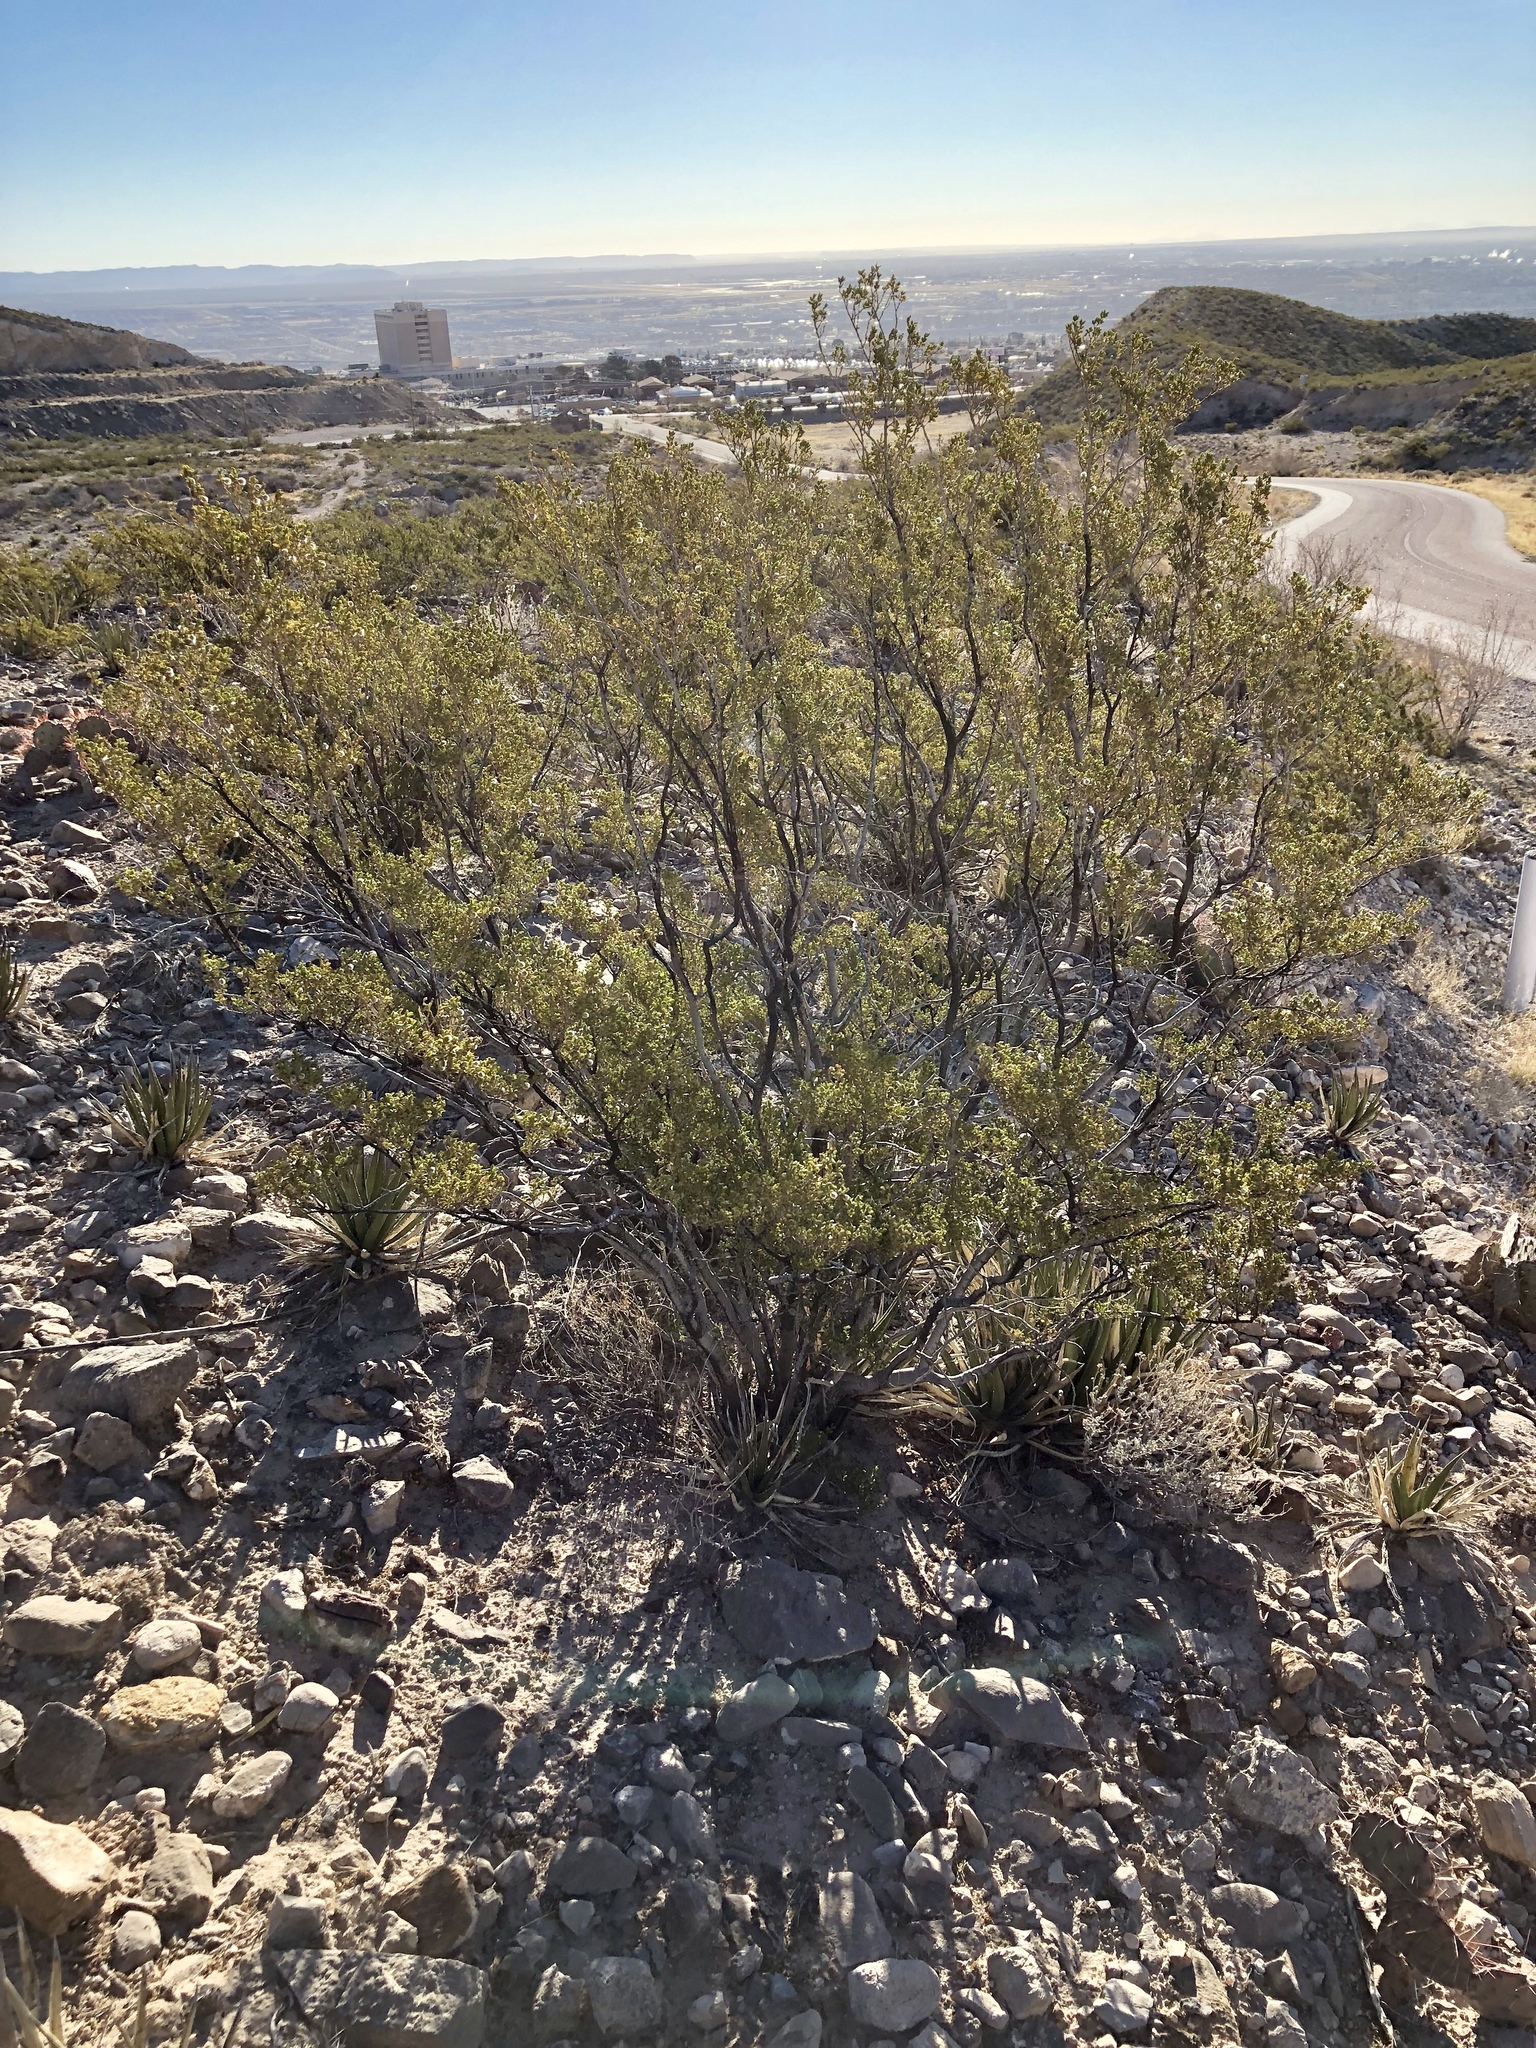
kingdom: Plantae
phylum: Tracheophyta
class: Magnoliopsida
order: Zygophyllales
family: Zygophyllaceae
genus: Larrea
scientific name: Larrea tridentata
